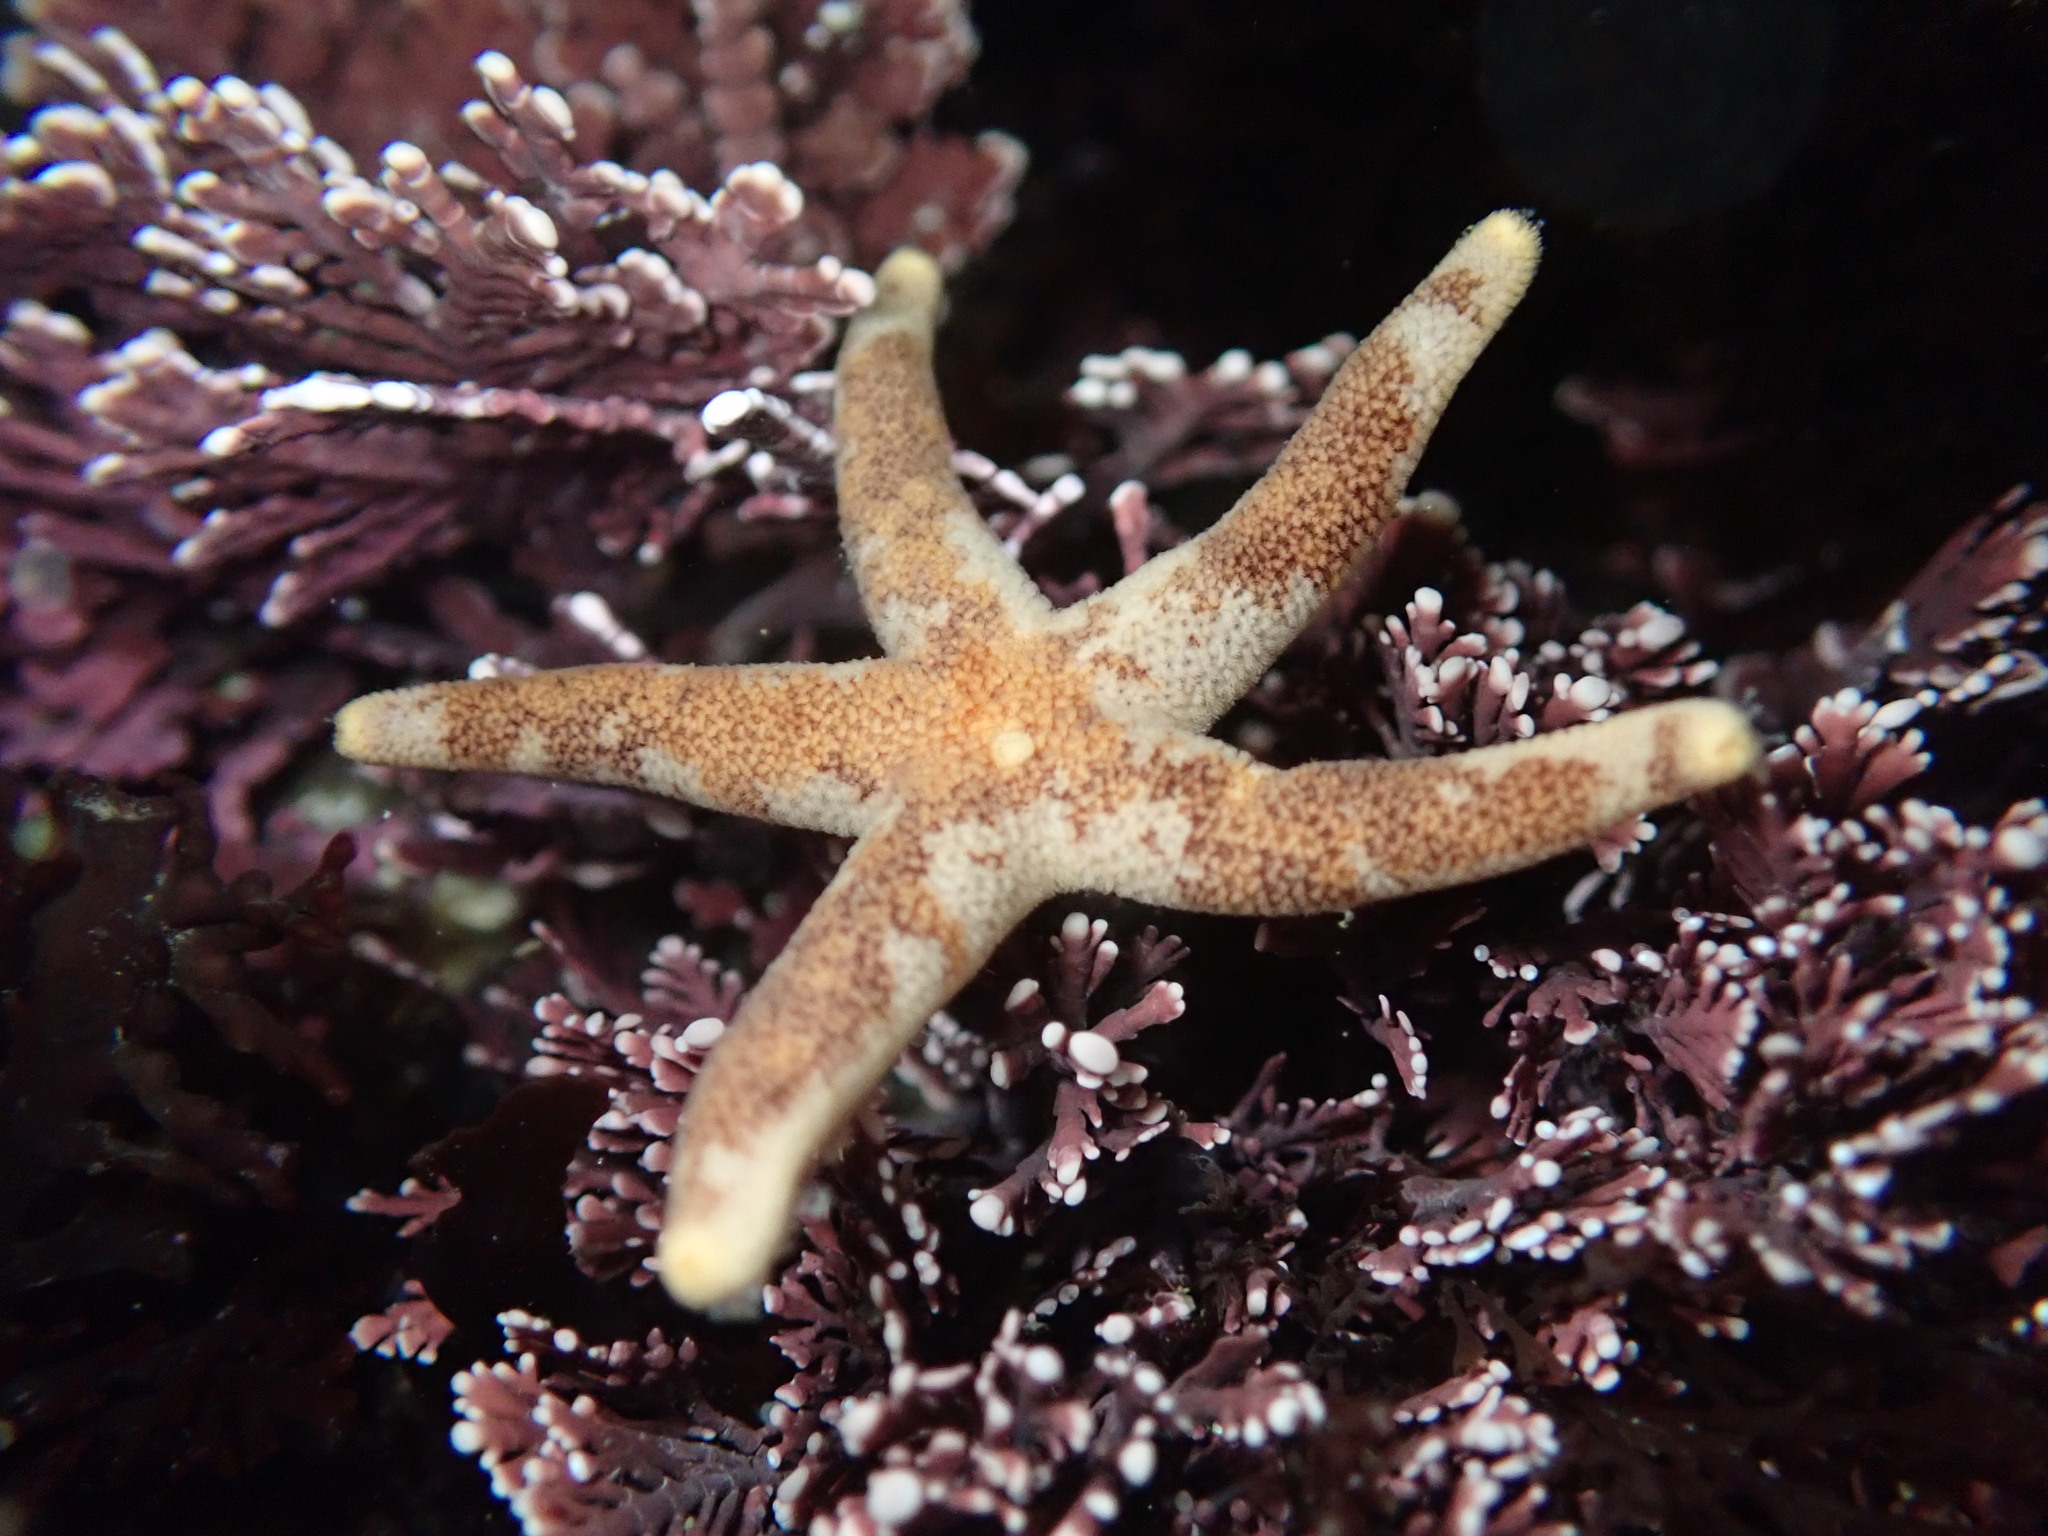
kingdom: Animalia
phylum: Echinodermata
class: Asteroidea
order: Spinulosida
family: Echinasteridae
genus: Henricia
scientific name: Henricia pumila
